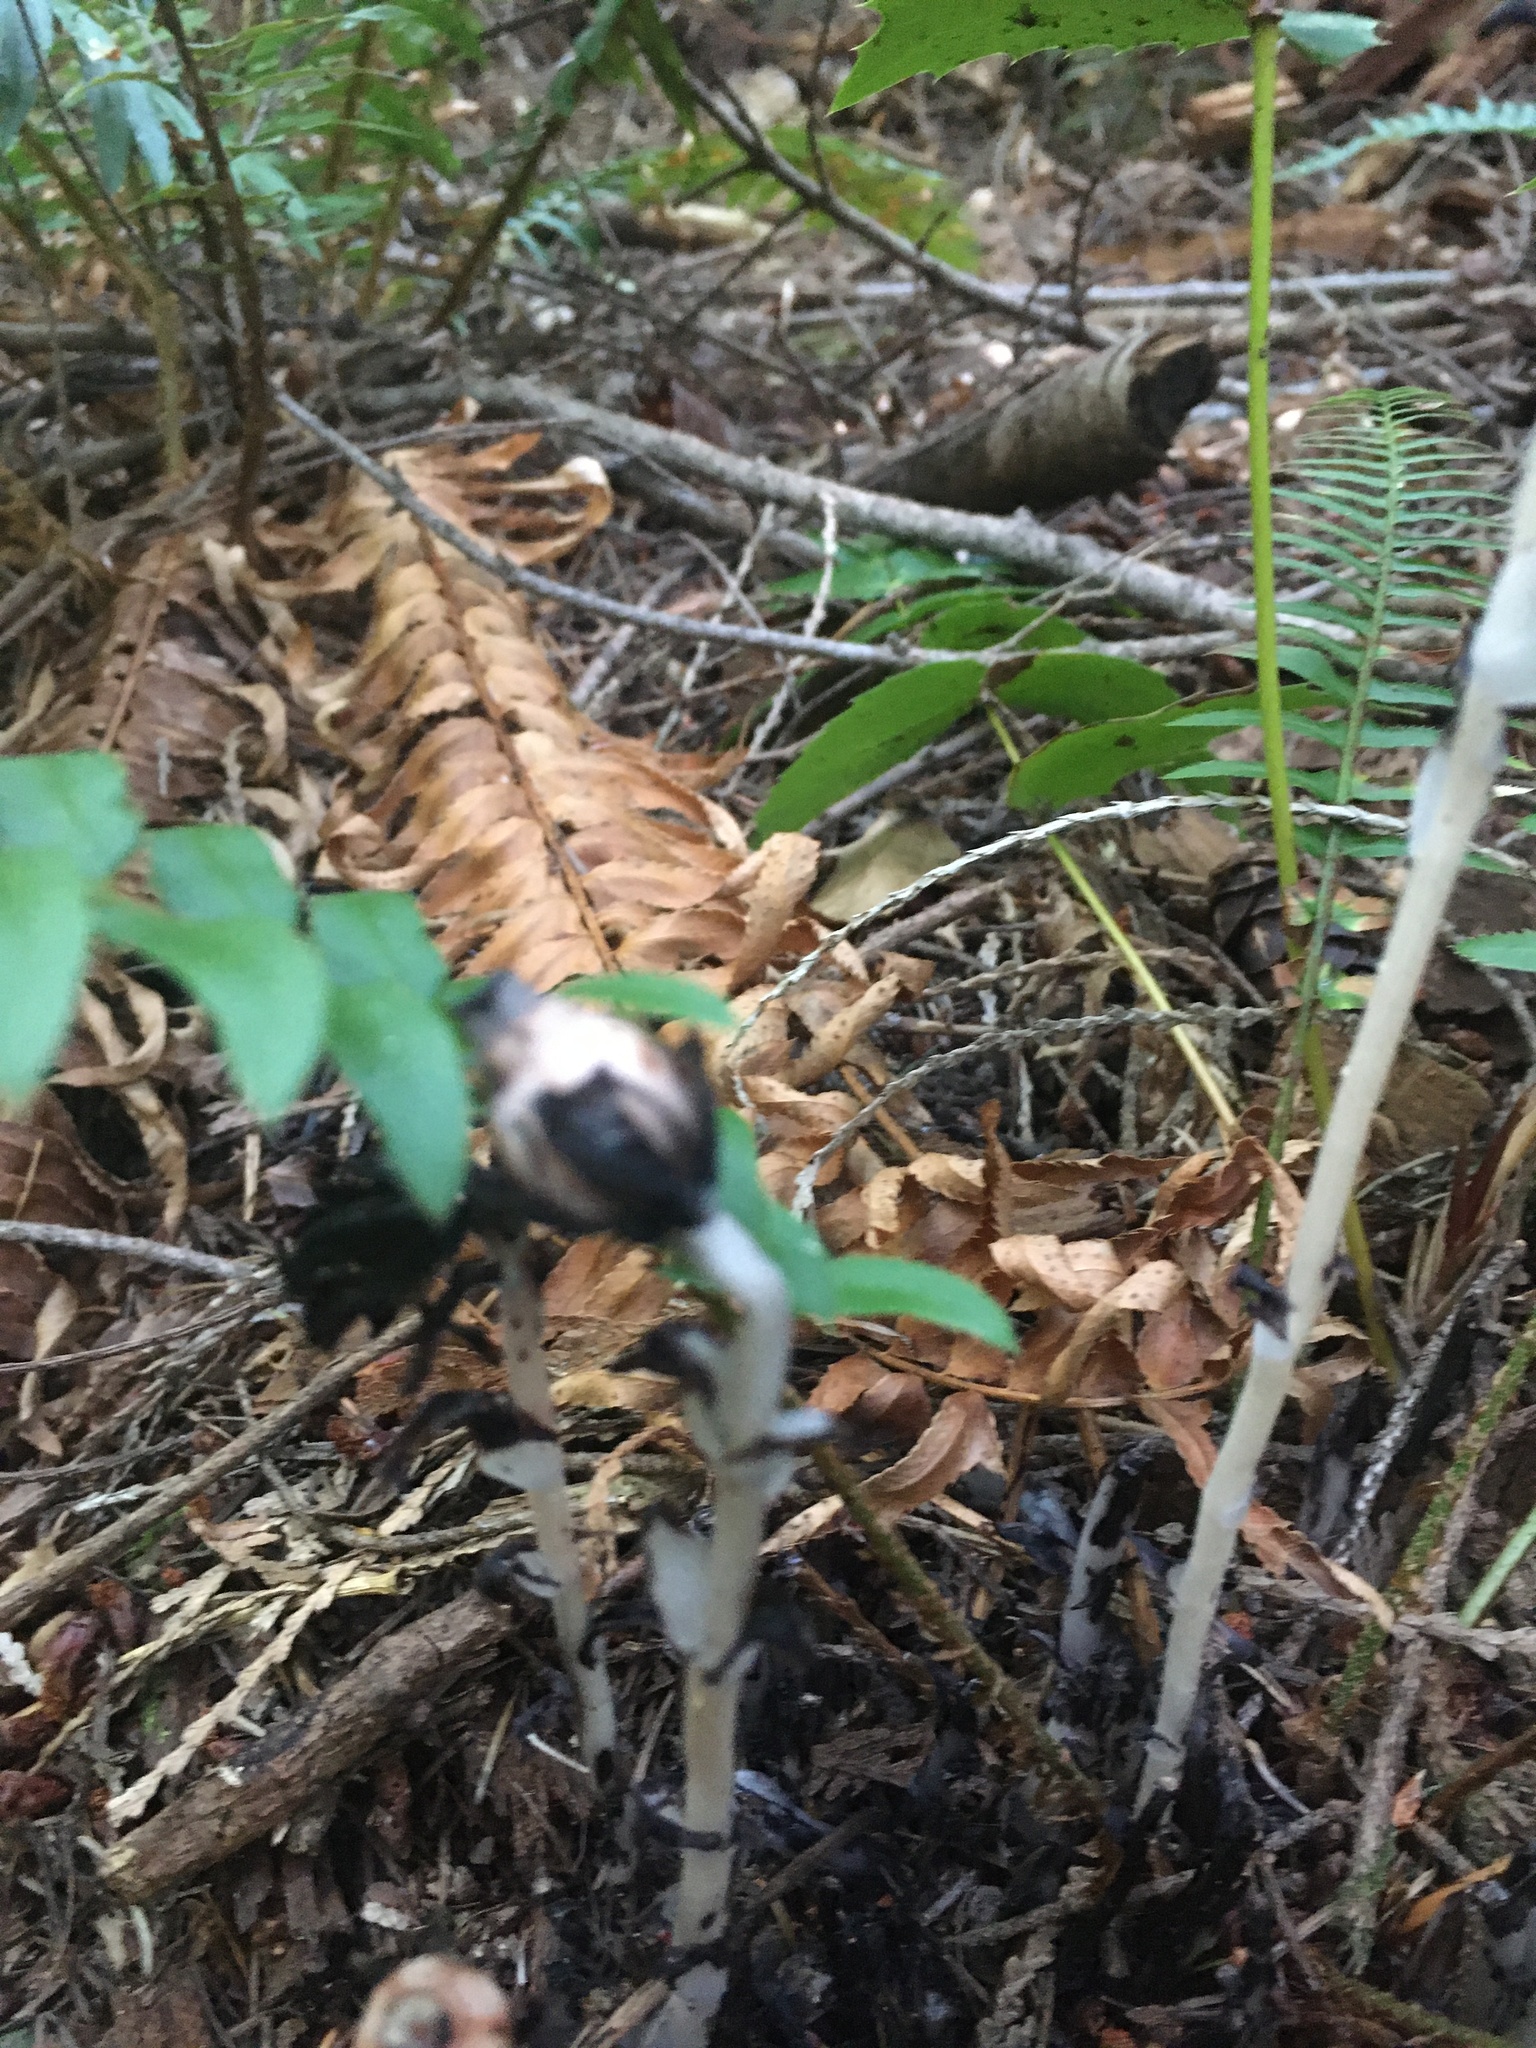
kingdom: Plantae
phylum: Tracheophyta
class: Magnoliopsida
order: Ericales
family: Ericaceae
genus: Monotropa
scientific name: Monotropa uniflora
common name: Convulsion root
